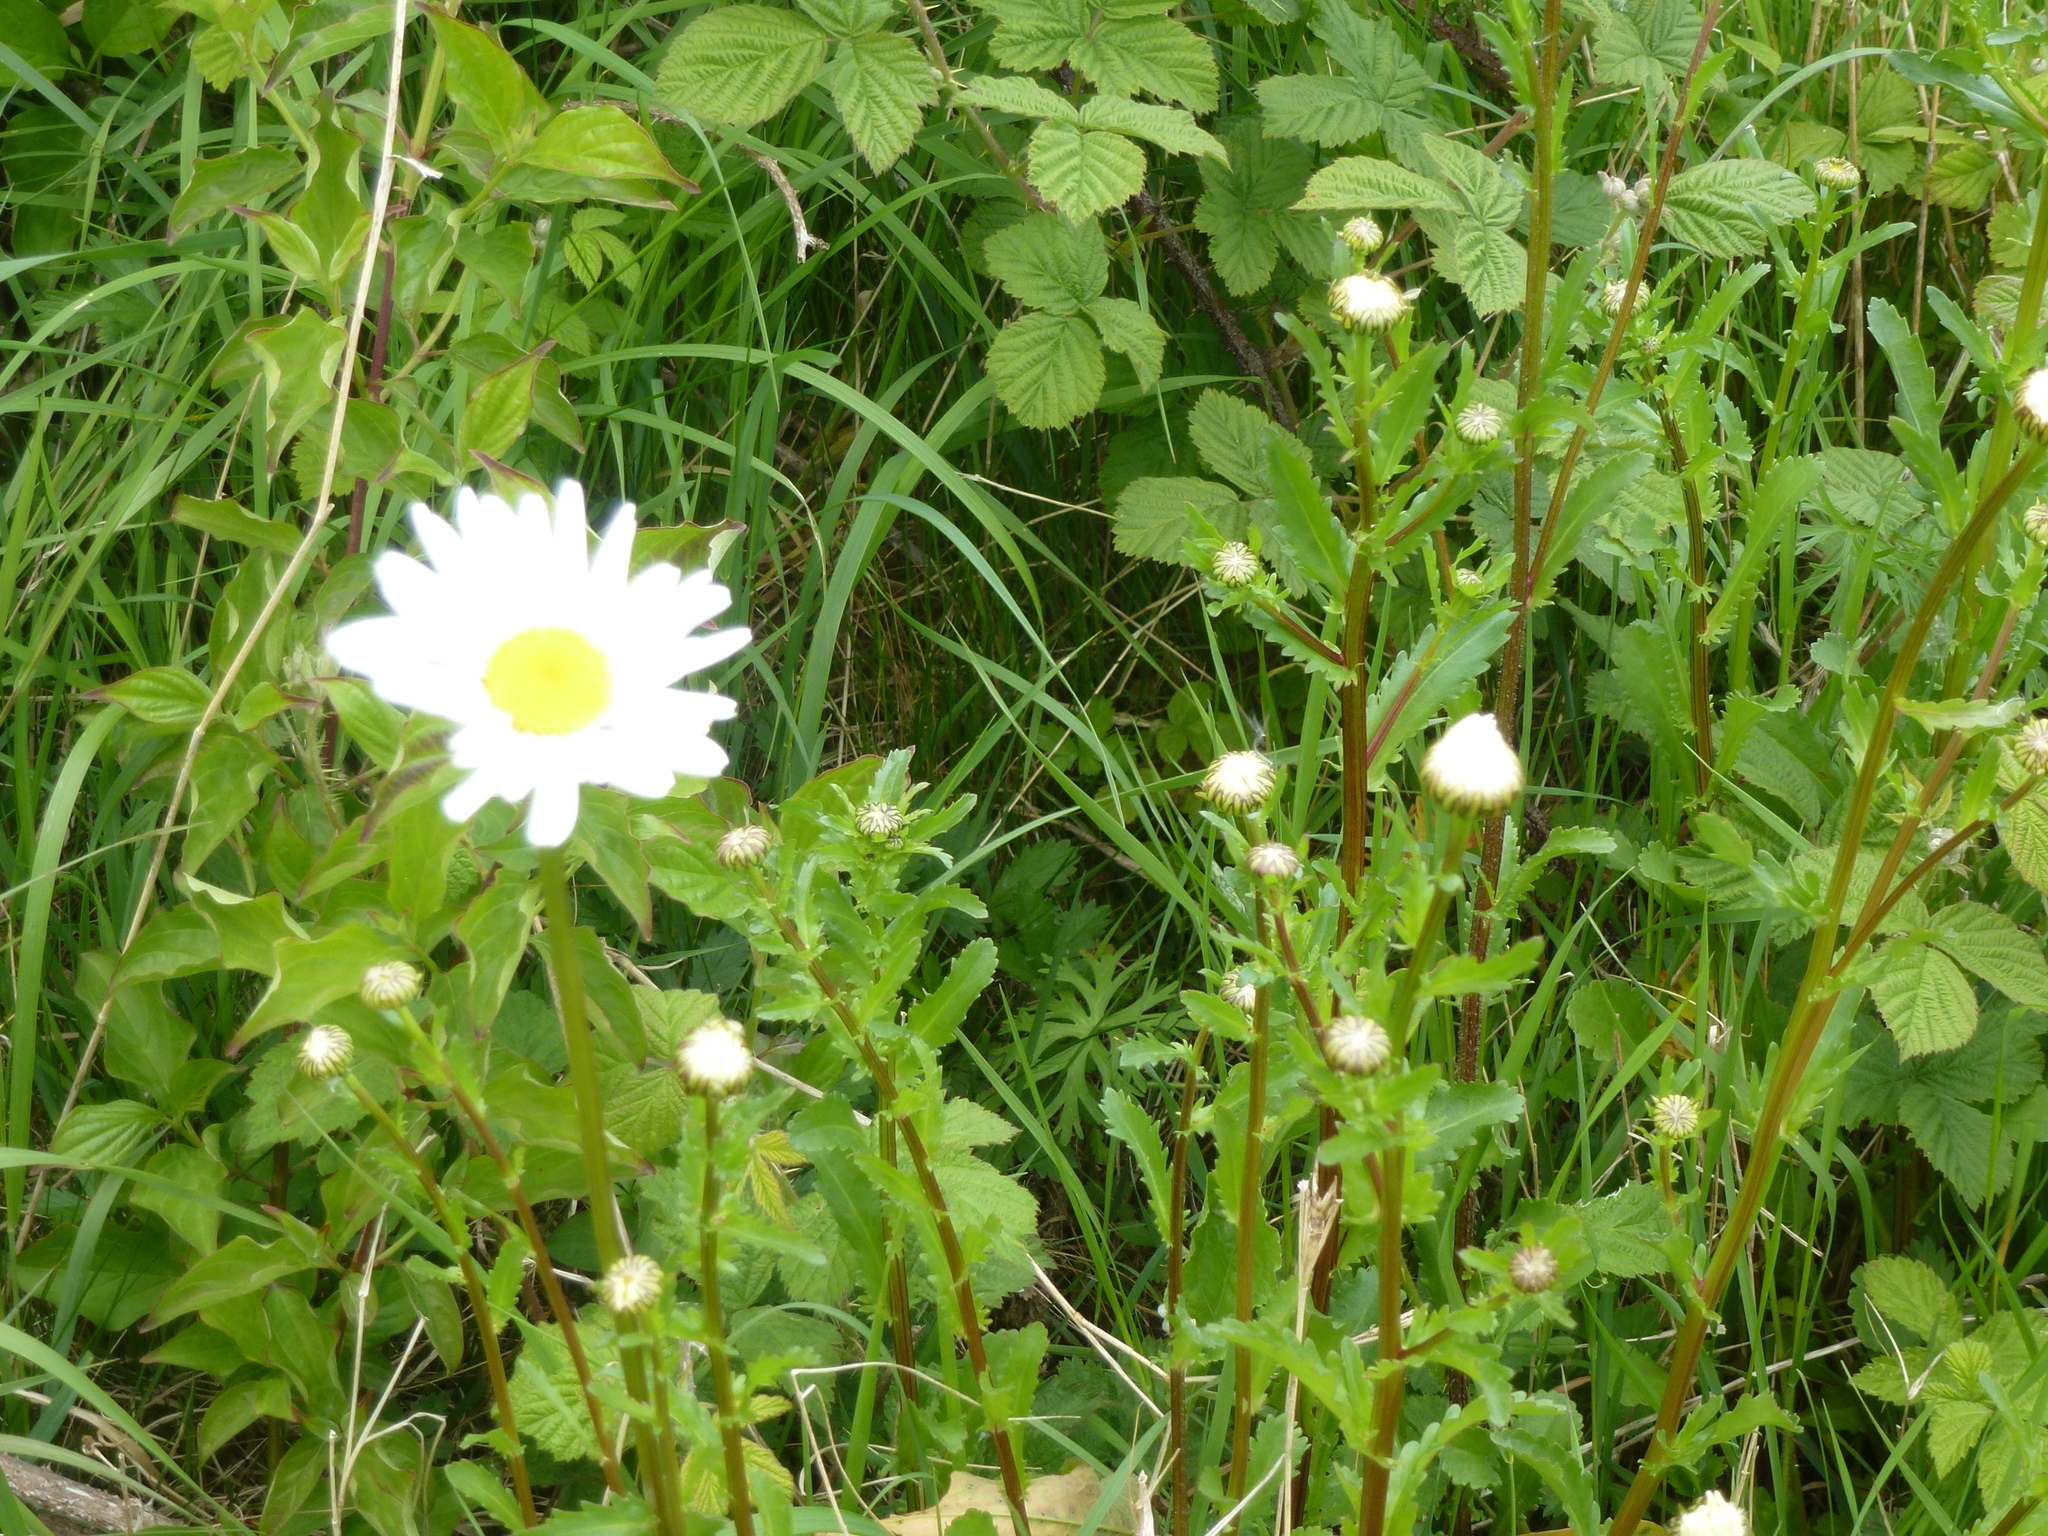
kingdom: Plantae
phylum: Tracheophyta
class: Magnoliopsida
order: Asterales
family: Asteraceae
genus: Leucanthemum
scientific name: Leucanthemum vulgare
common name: Oxeye daisy
